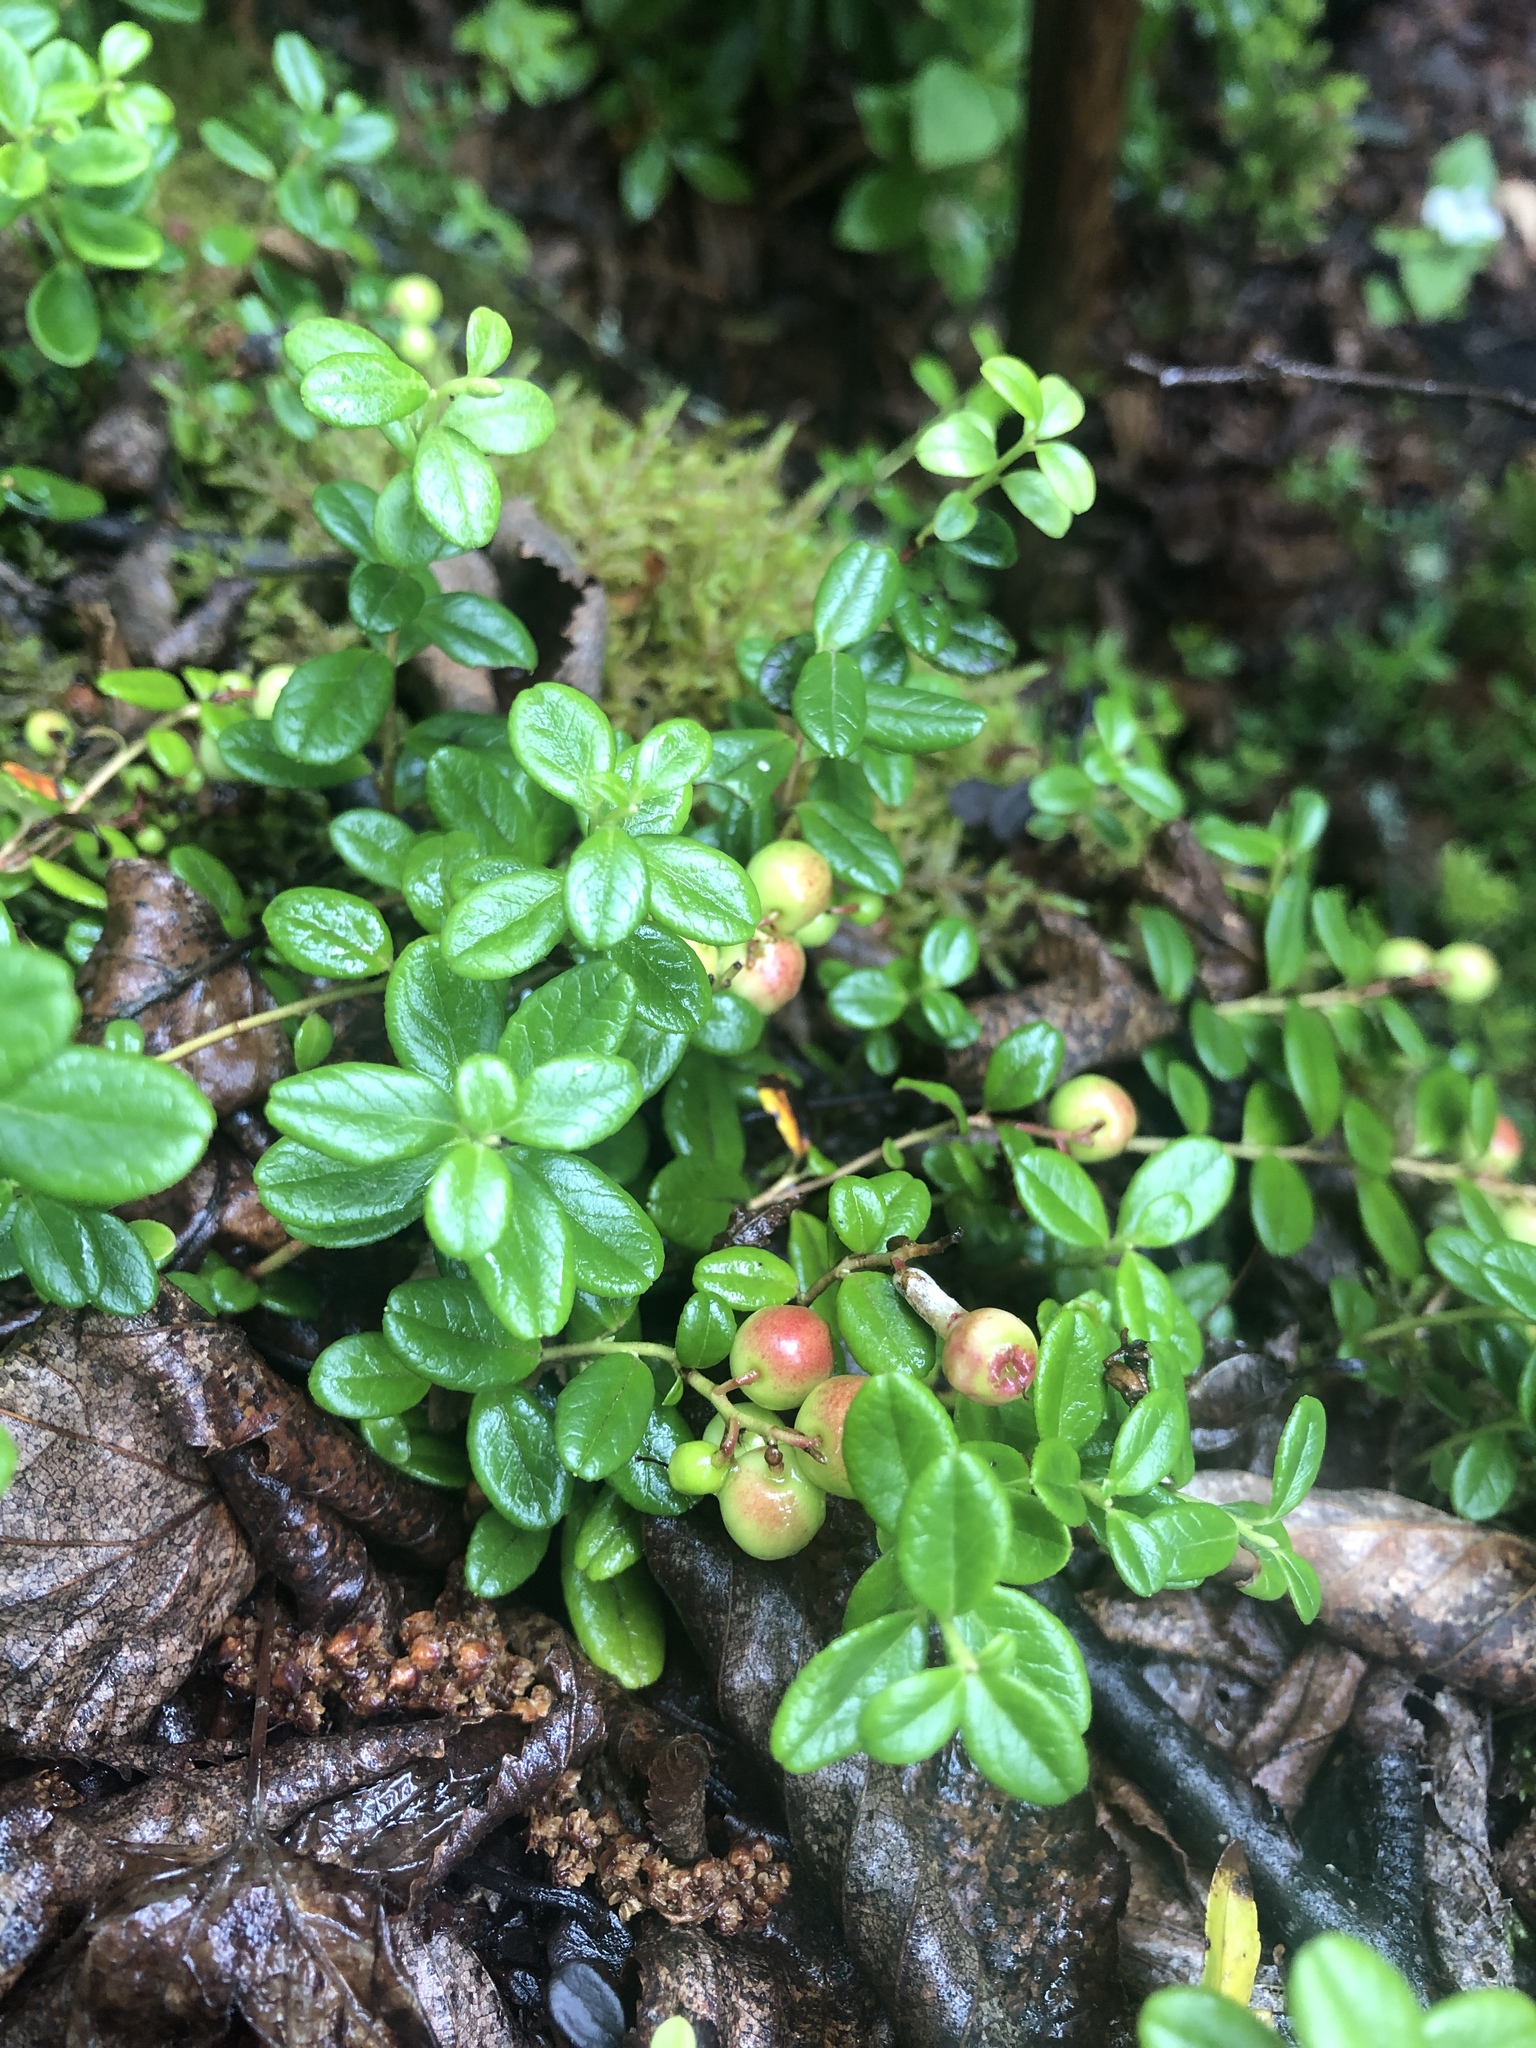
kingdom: Plantae
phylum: Tracheophyta
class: Magnoliopsida
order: Ericales
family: Ericaceae
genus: Vaccinium
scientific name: Vaccinium vitis-idaea
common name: Cowberry
